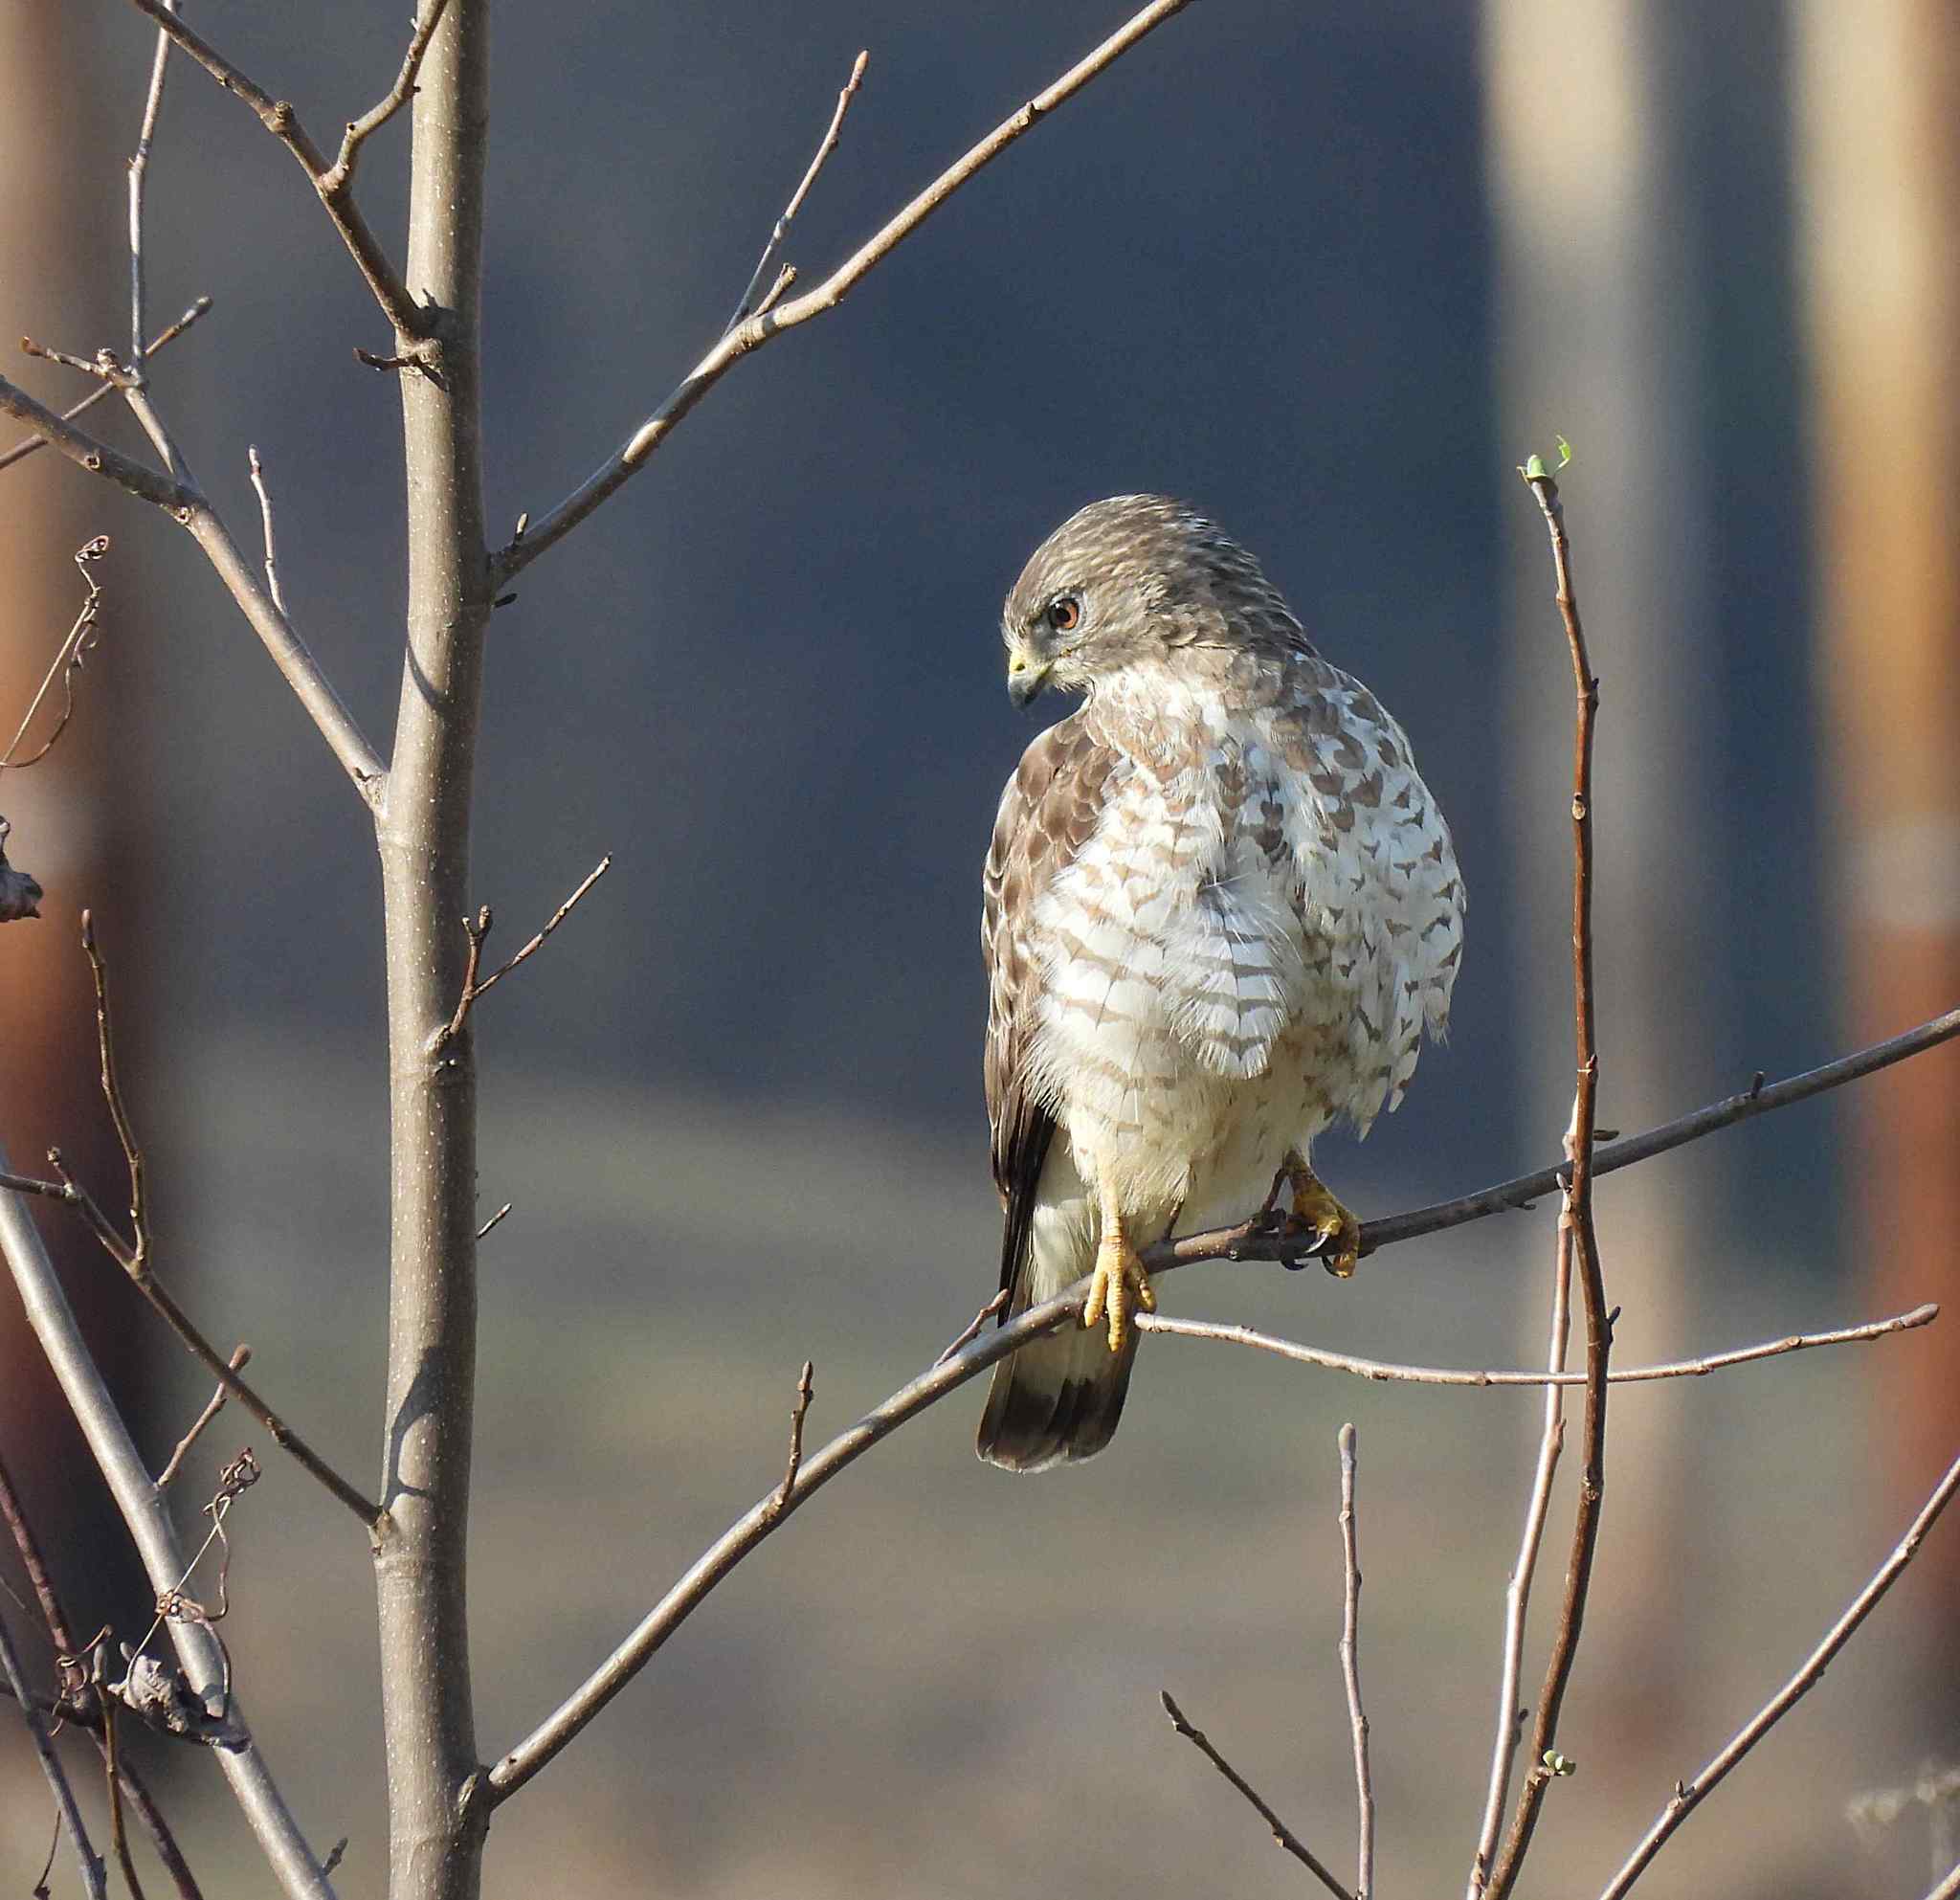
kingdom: Animalia
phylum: Chordata
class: Aves
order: Accipitriformes
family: Accipitridae
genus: Buteo
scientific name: Buteo platypterus
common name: Broad-winged hawk
